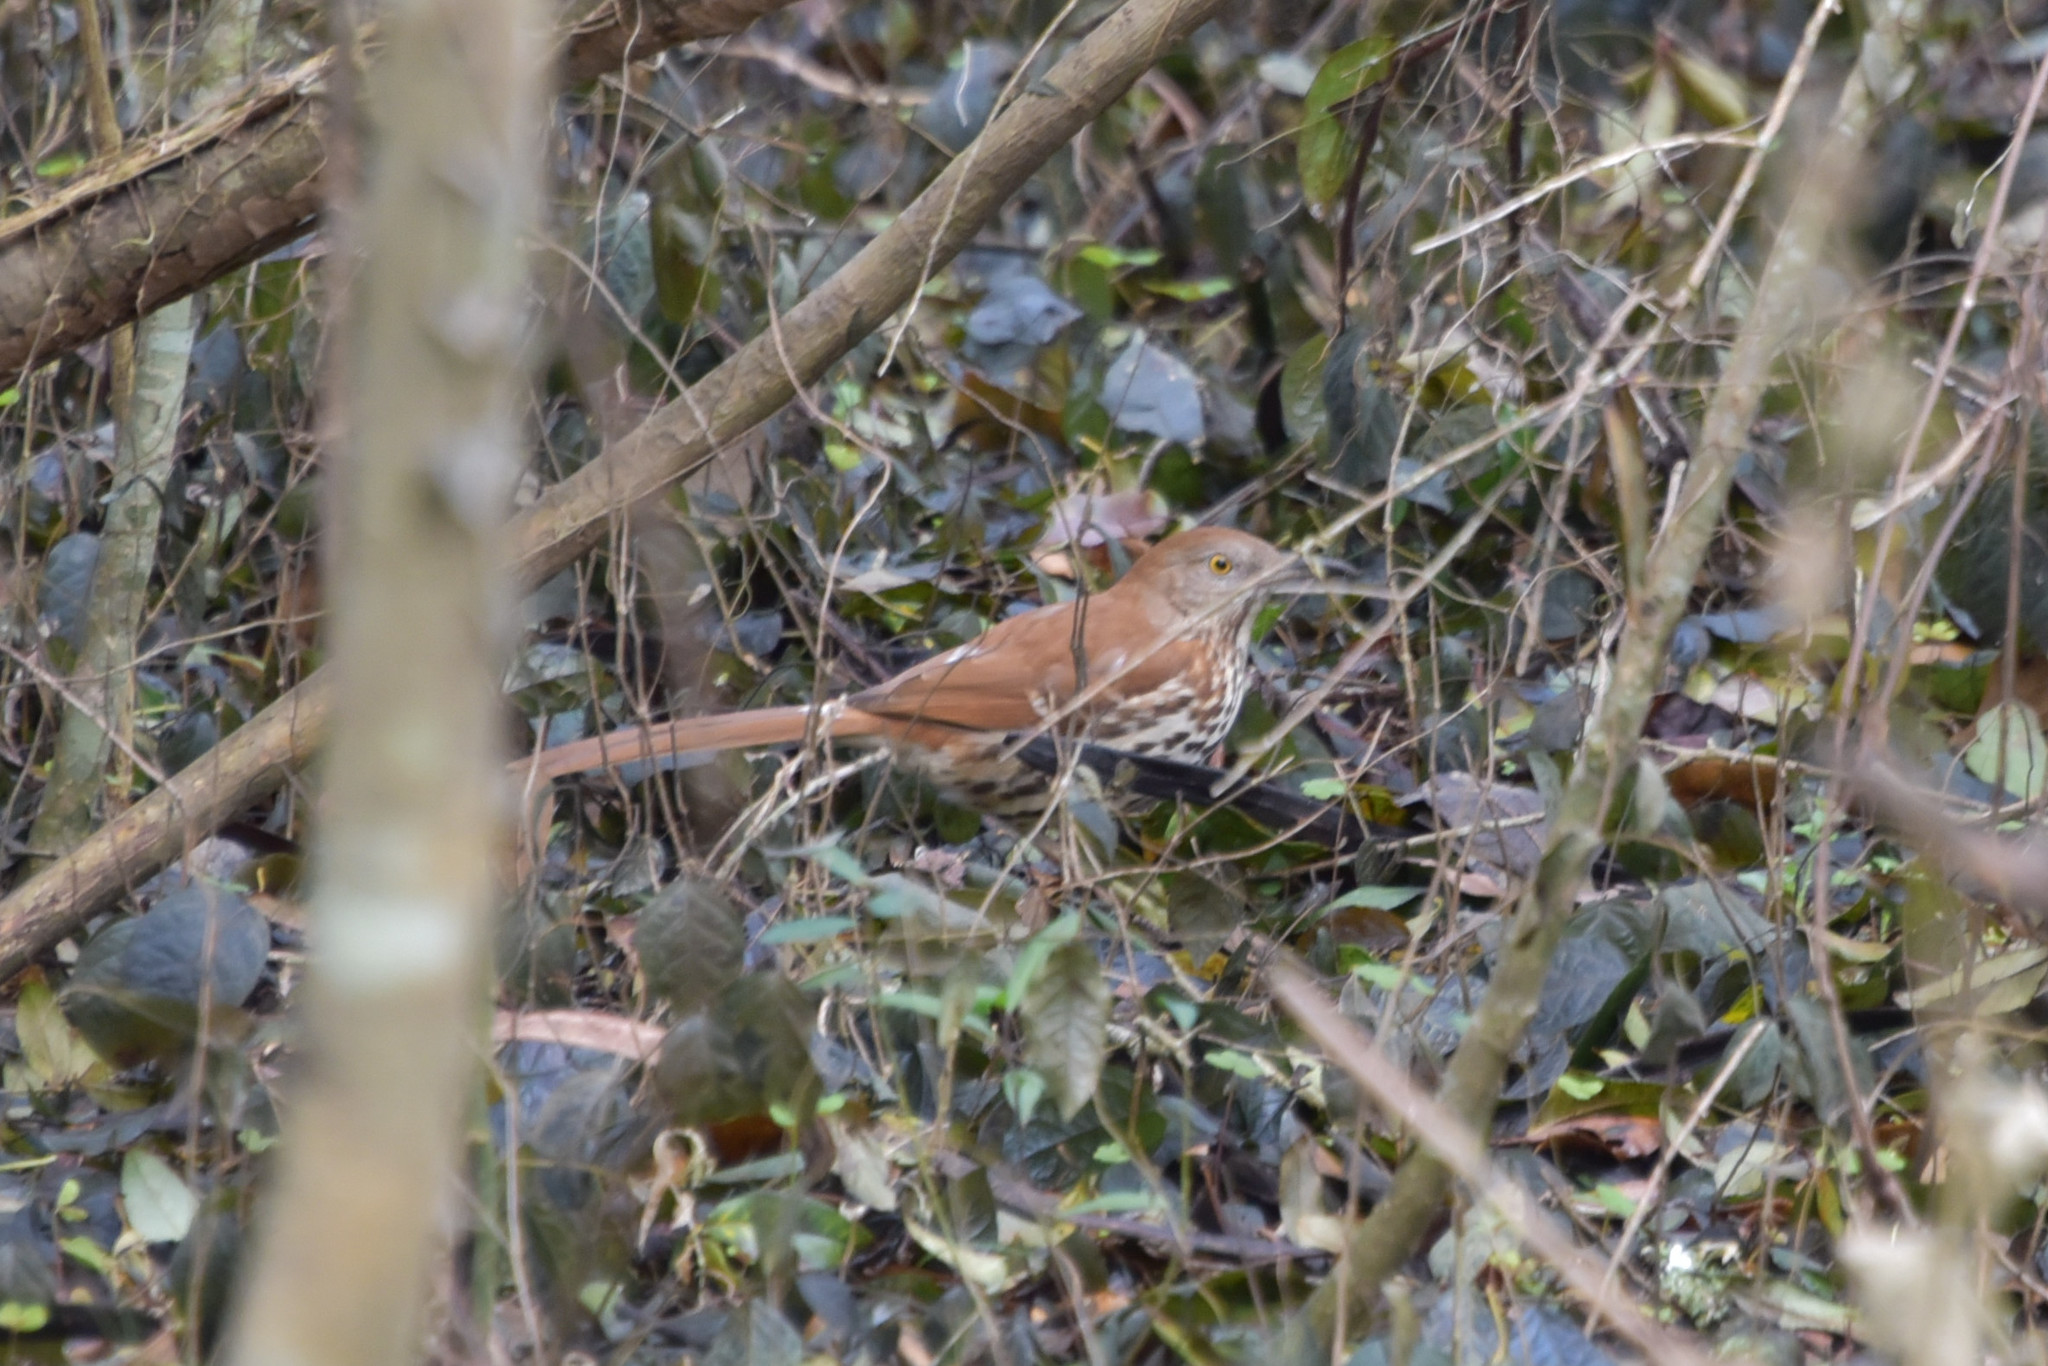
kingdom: Animalia
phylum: Chordata
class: Aves
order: Passeriformes
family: Mimidae
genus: Toxostoma
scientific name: Toxostoma rufum
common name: Brown thrasher
